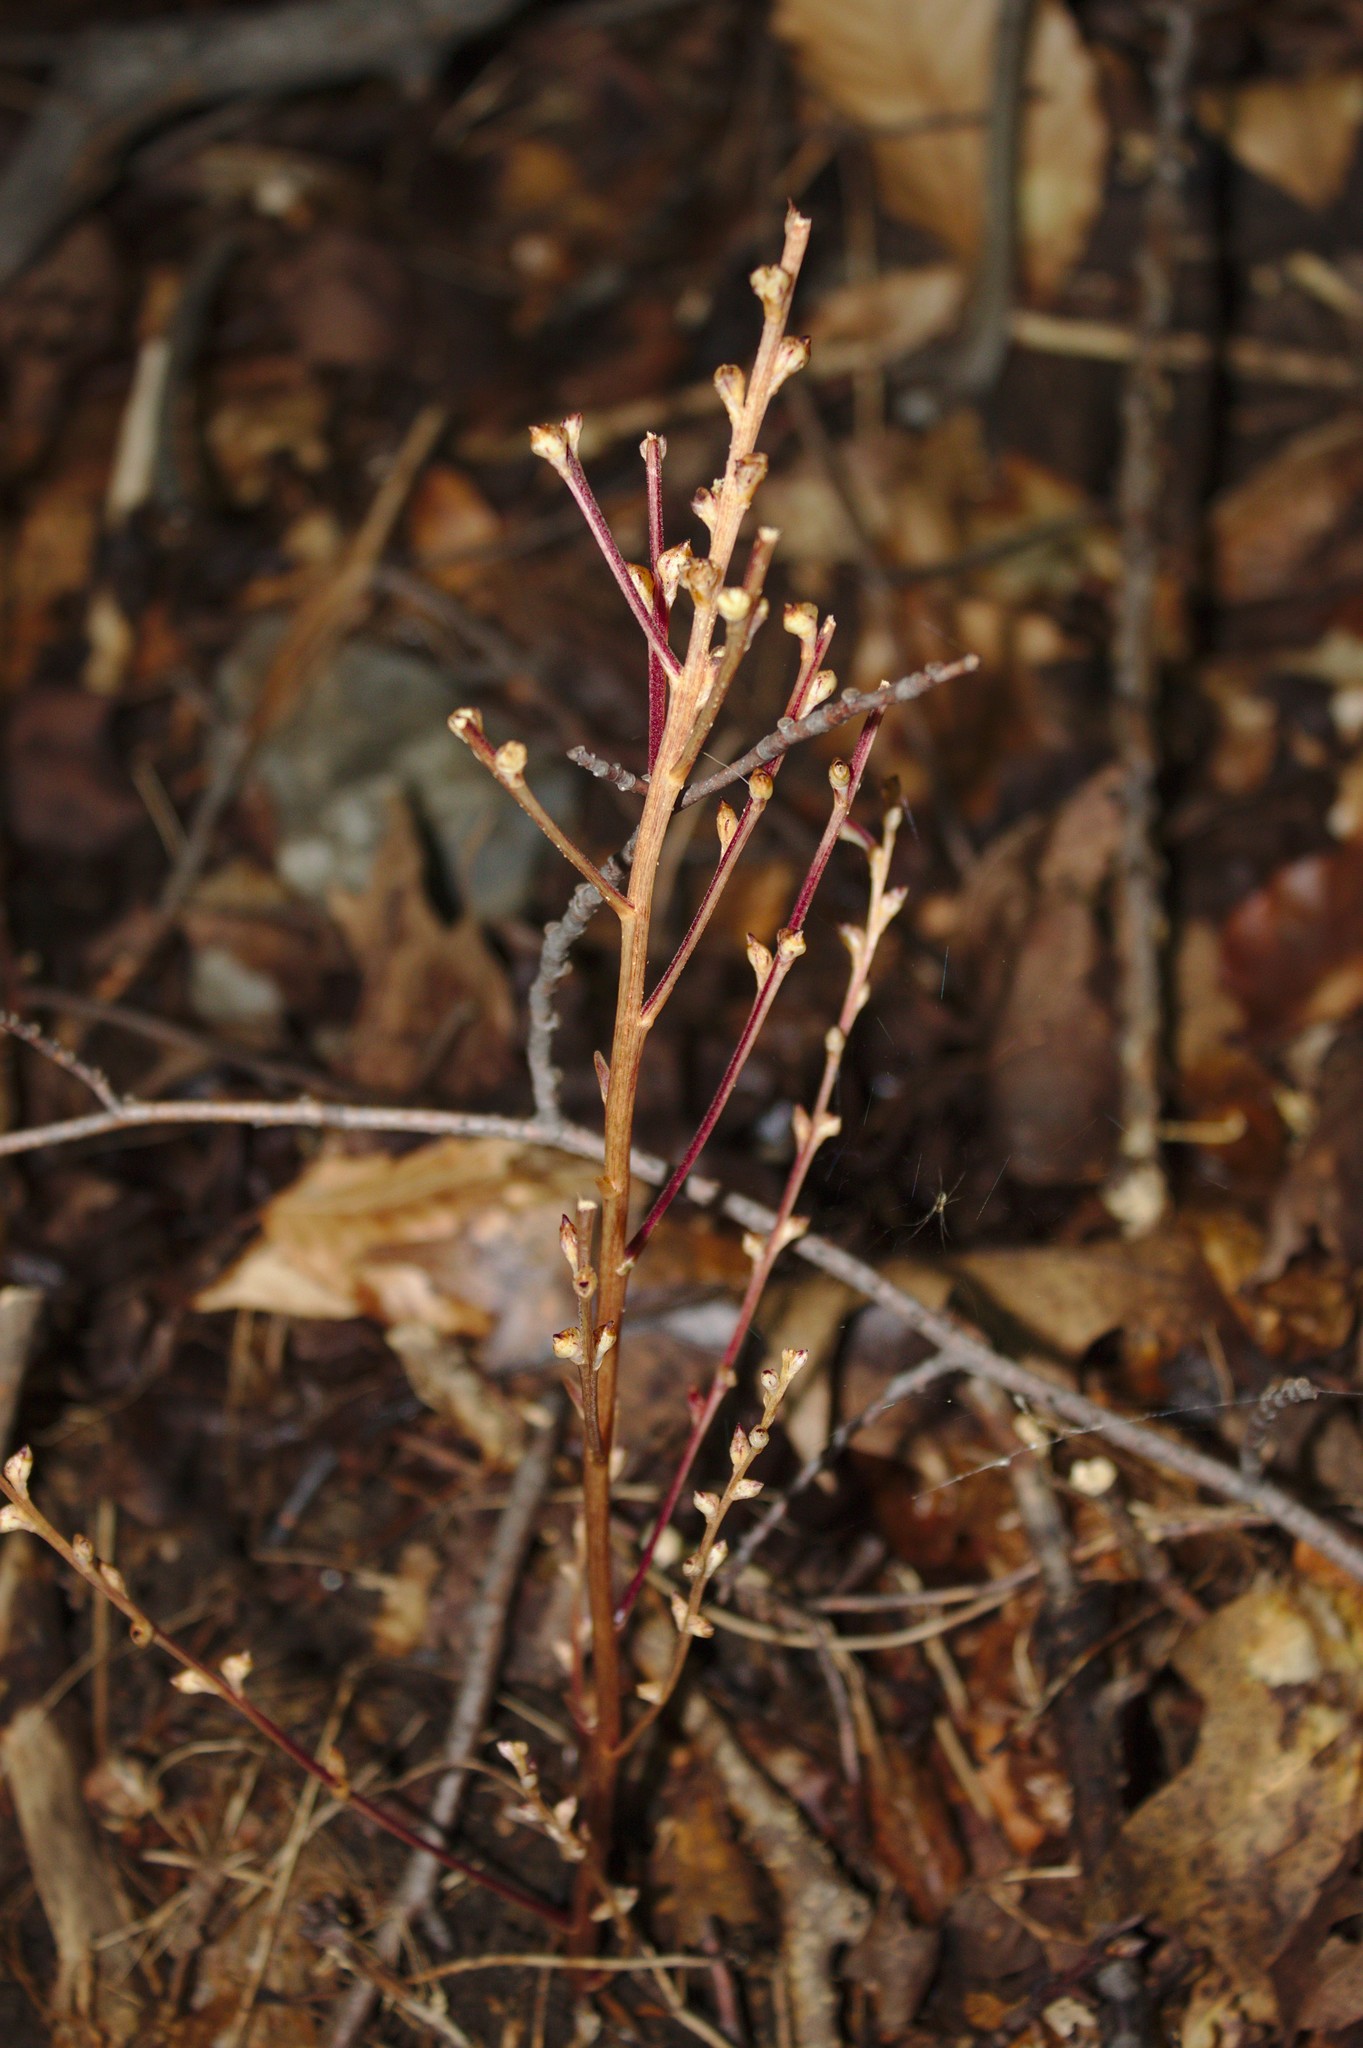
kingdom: Plantae
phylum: Tracheophyta
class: Magnoliopsida
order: Lamiales
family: Orobanchaceae
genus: Epifagus
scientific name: Epifagus virginiana
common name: Beechdrops
